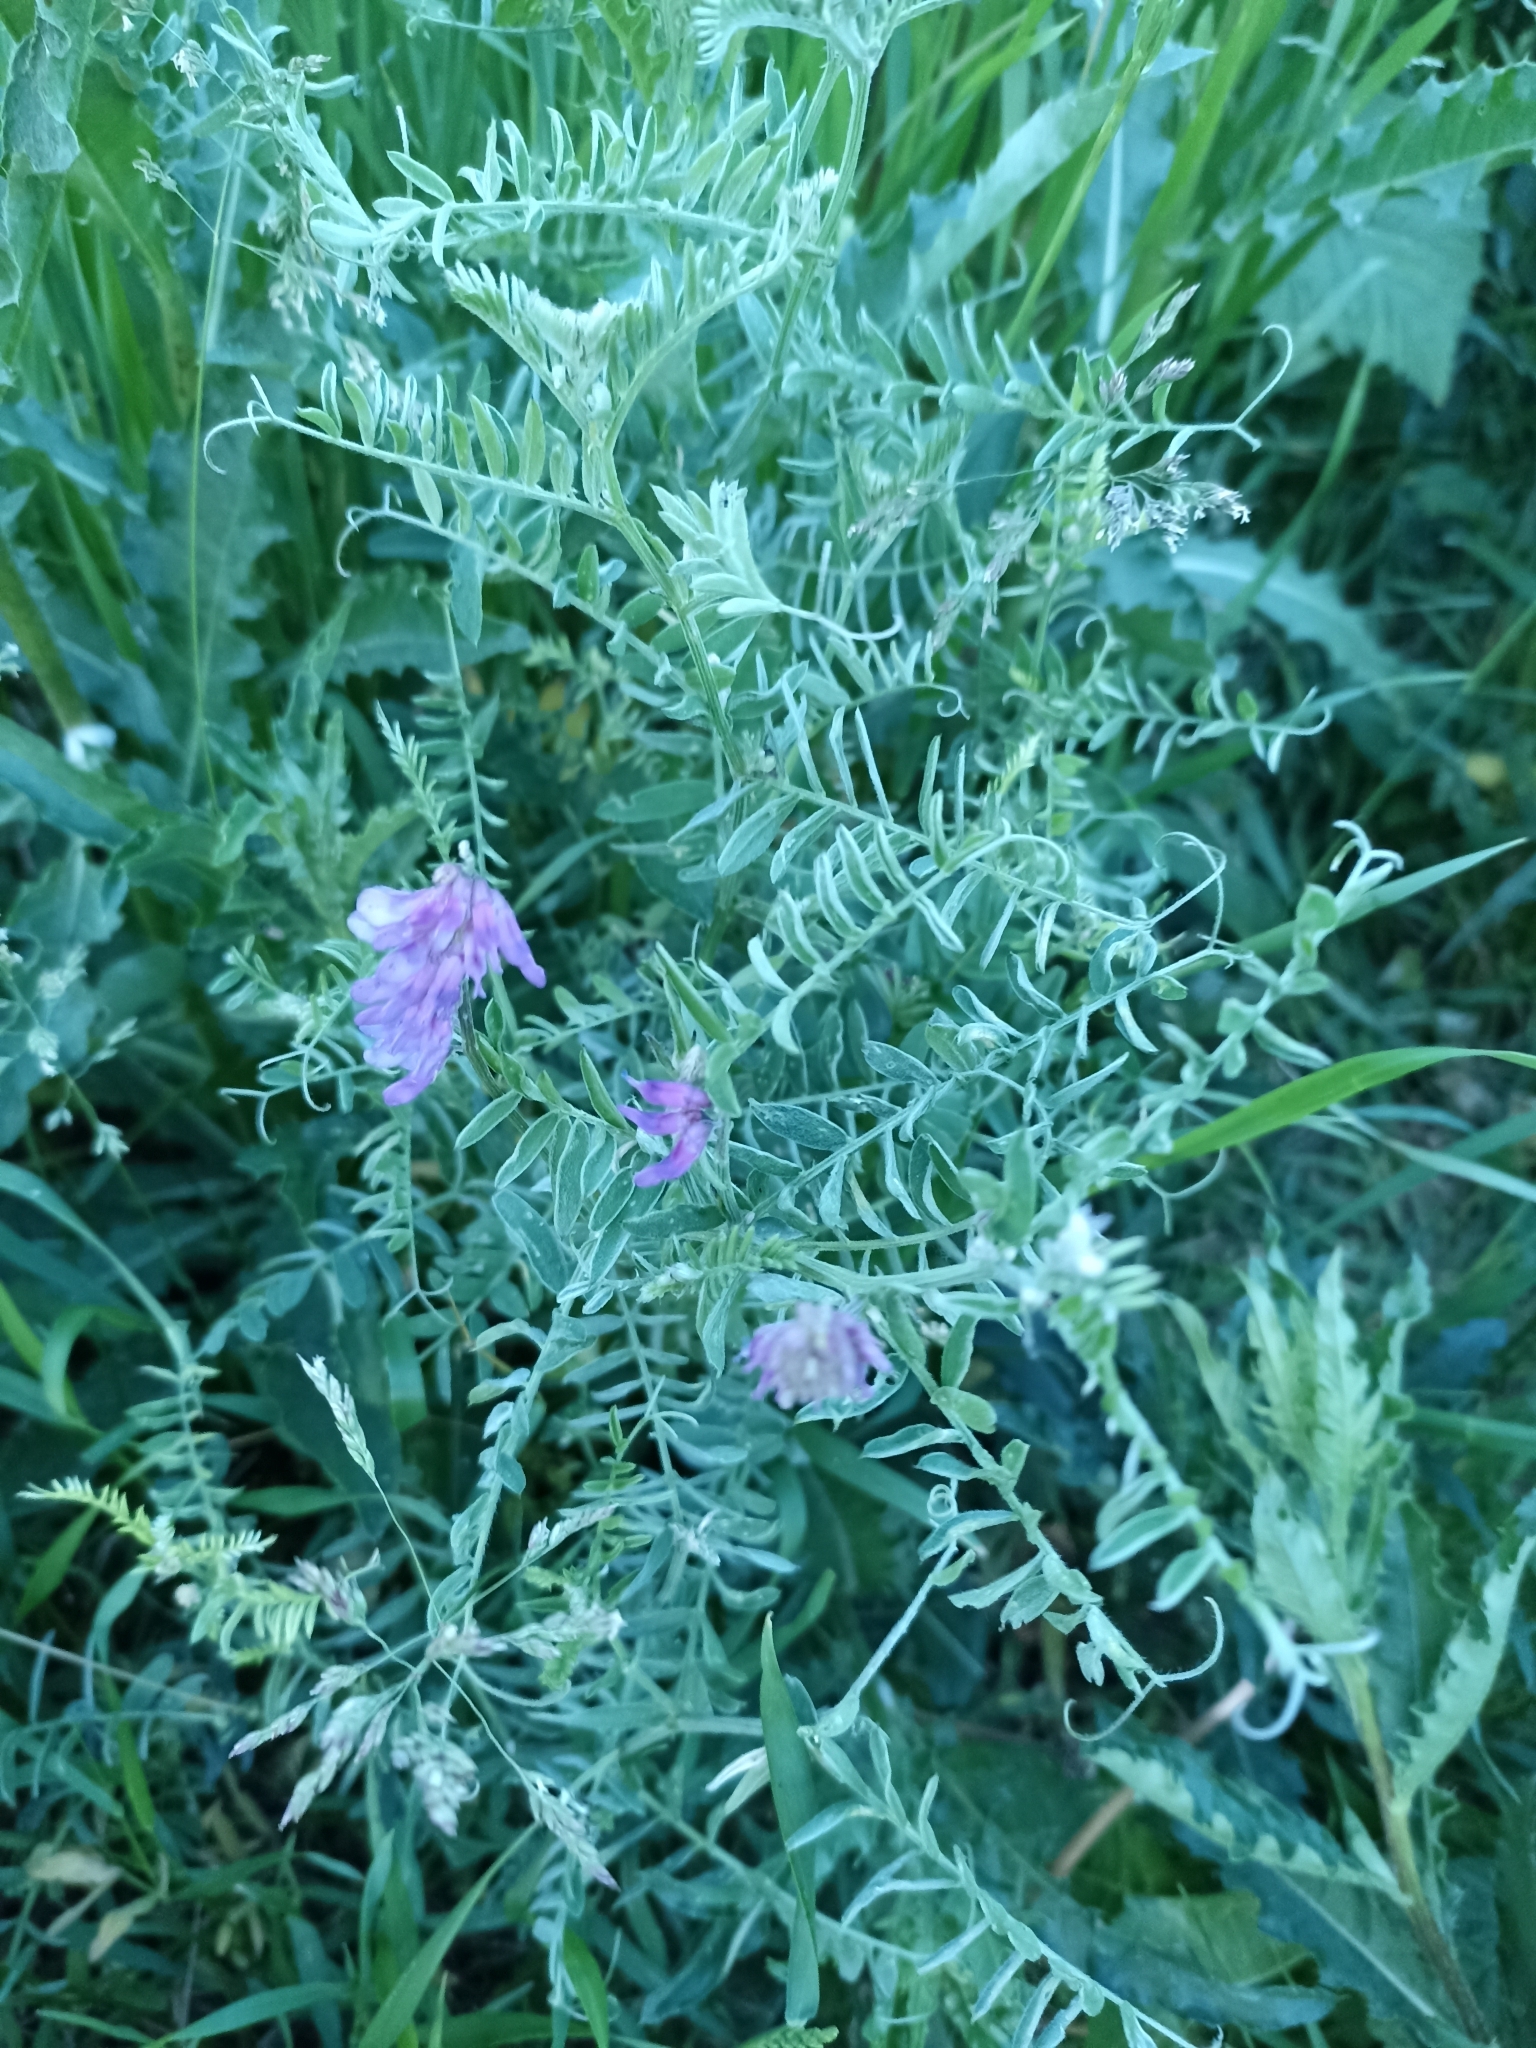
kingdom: Plantae
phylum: Tracheophyta
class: Magnoliopsida
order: Fabales
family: Fabaceae
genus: Vicia
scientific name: Vicia cracca
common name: Bird vetch
